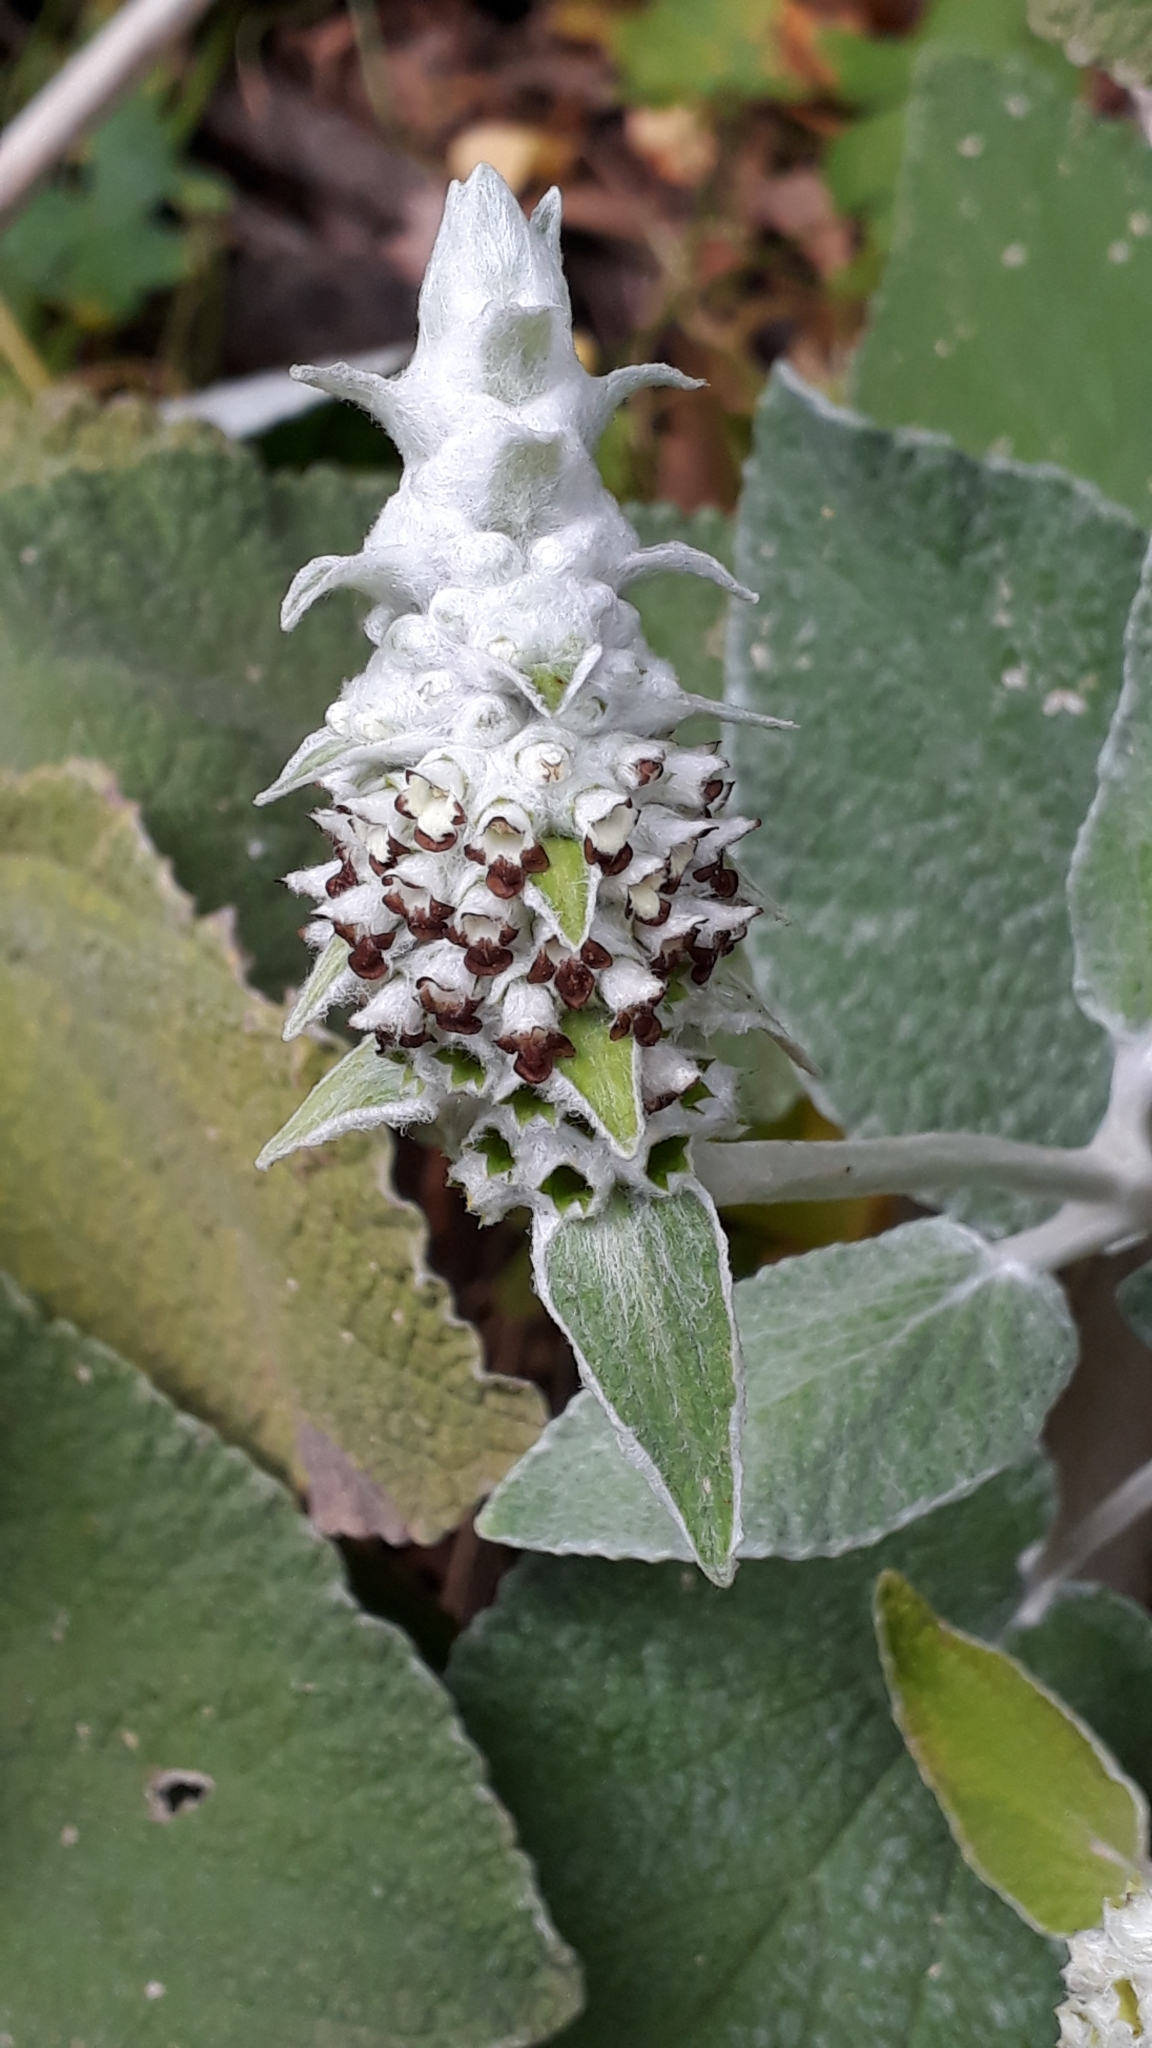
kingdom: Plantae
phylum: Tracheophyta
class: Magnoliopsida
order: Lamiales
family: Lamiaceae
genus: Sideritis
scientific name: Sideritis macrostachyos
